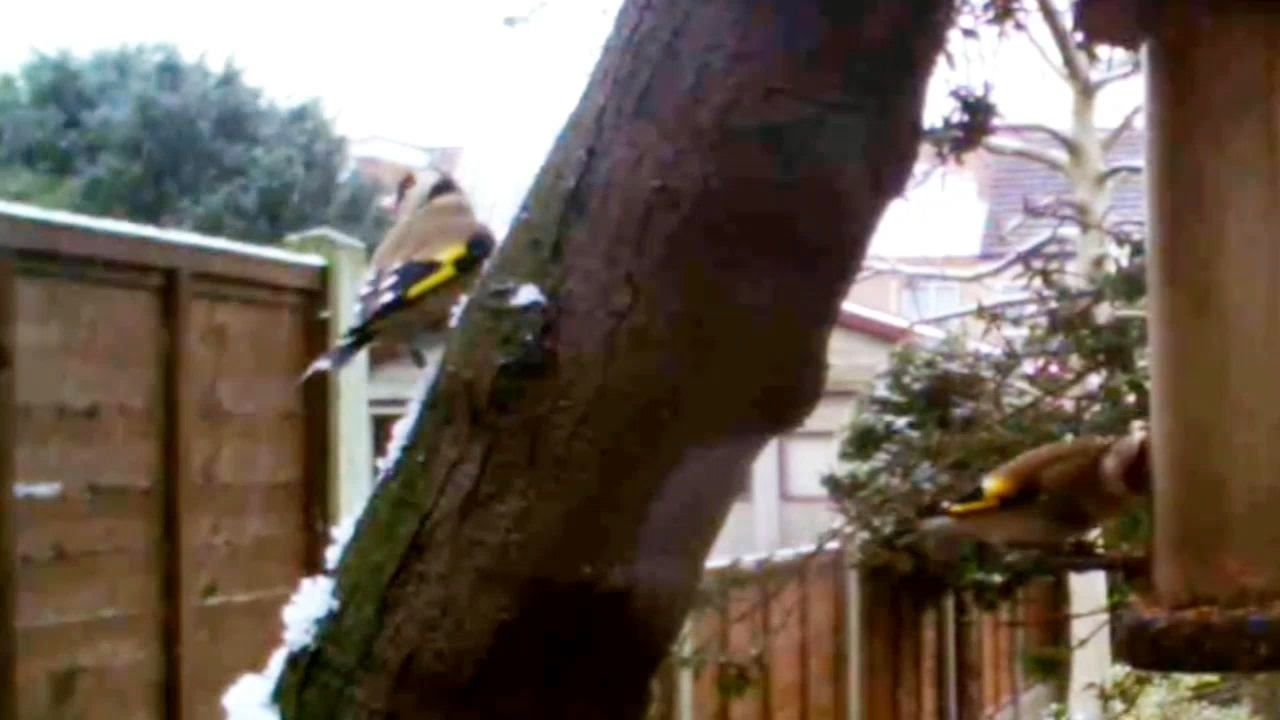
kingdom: Animalia
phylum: Chordata
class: Aves
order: Passeriformes
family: Fringillidae
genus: Carduelis
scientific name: Carduelis carduelis
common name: European goldfinch
